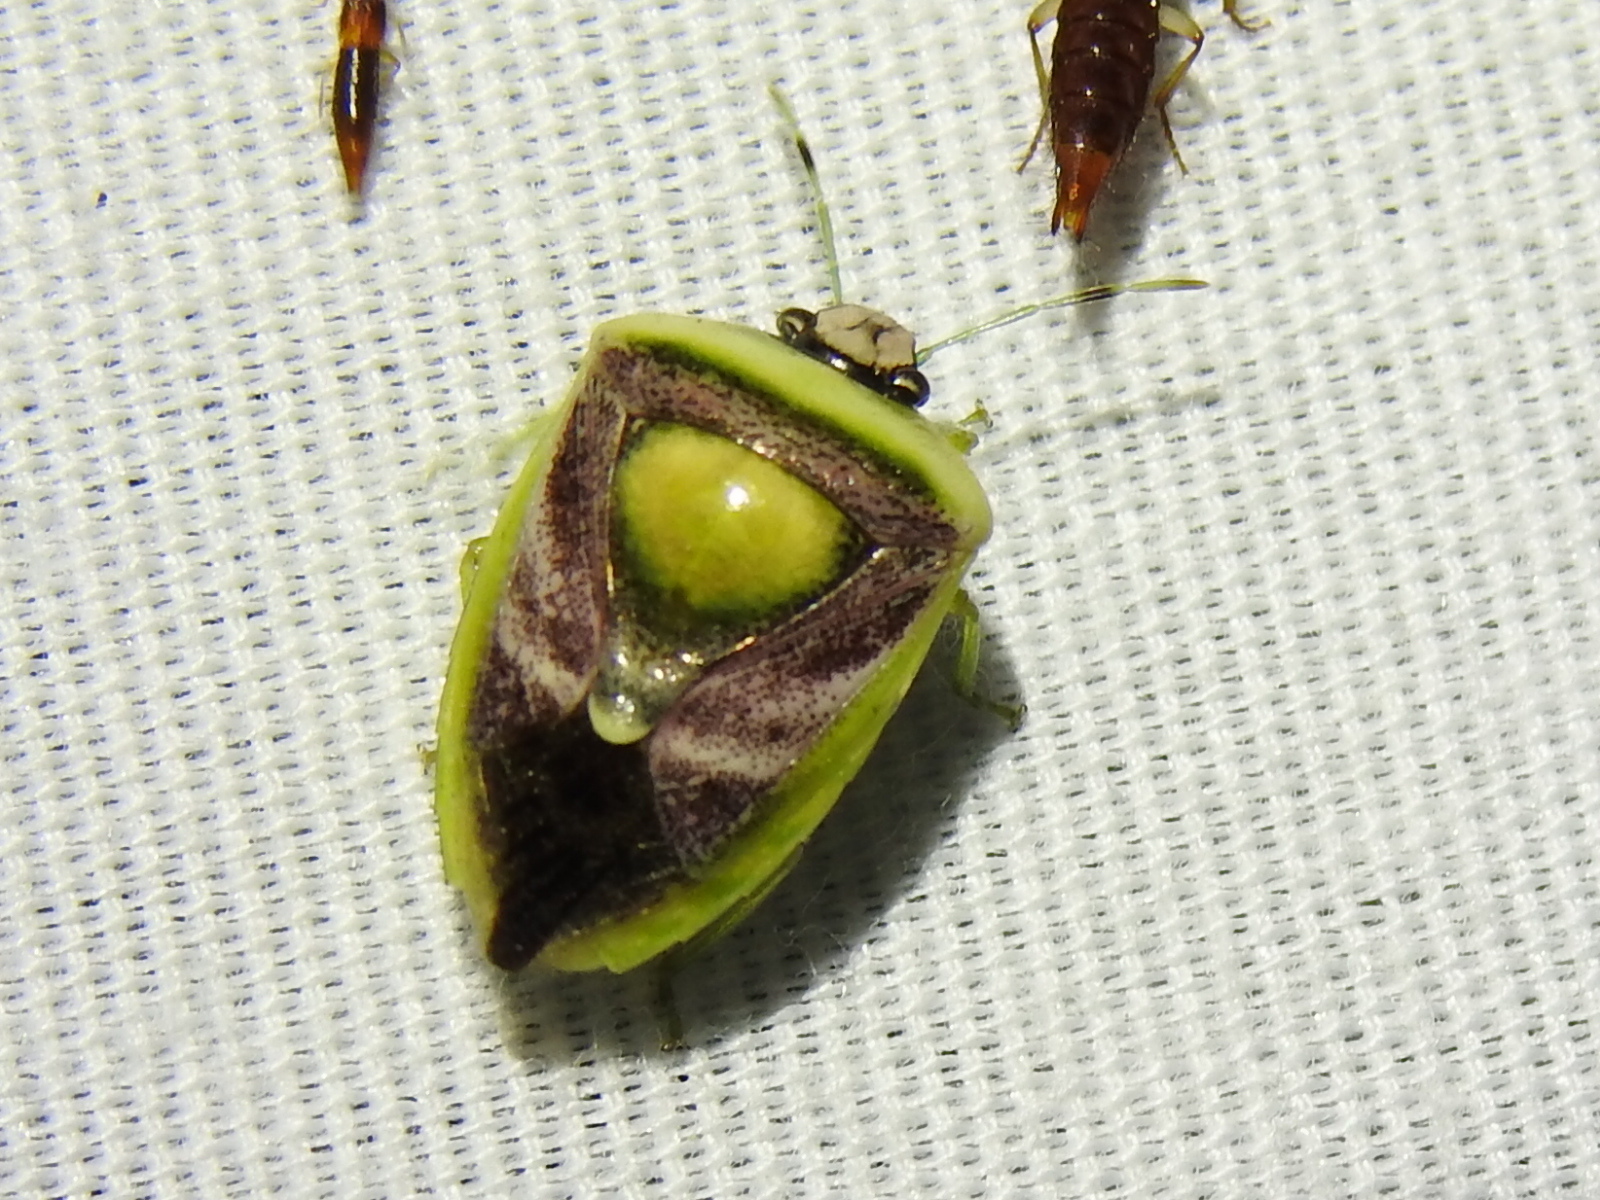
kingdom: Animalia
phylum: Arthropoda
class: Insecta
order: Hemiptera
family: Pentatomidae
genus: Kermana
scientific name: Kermana imbuta
